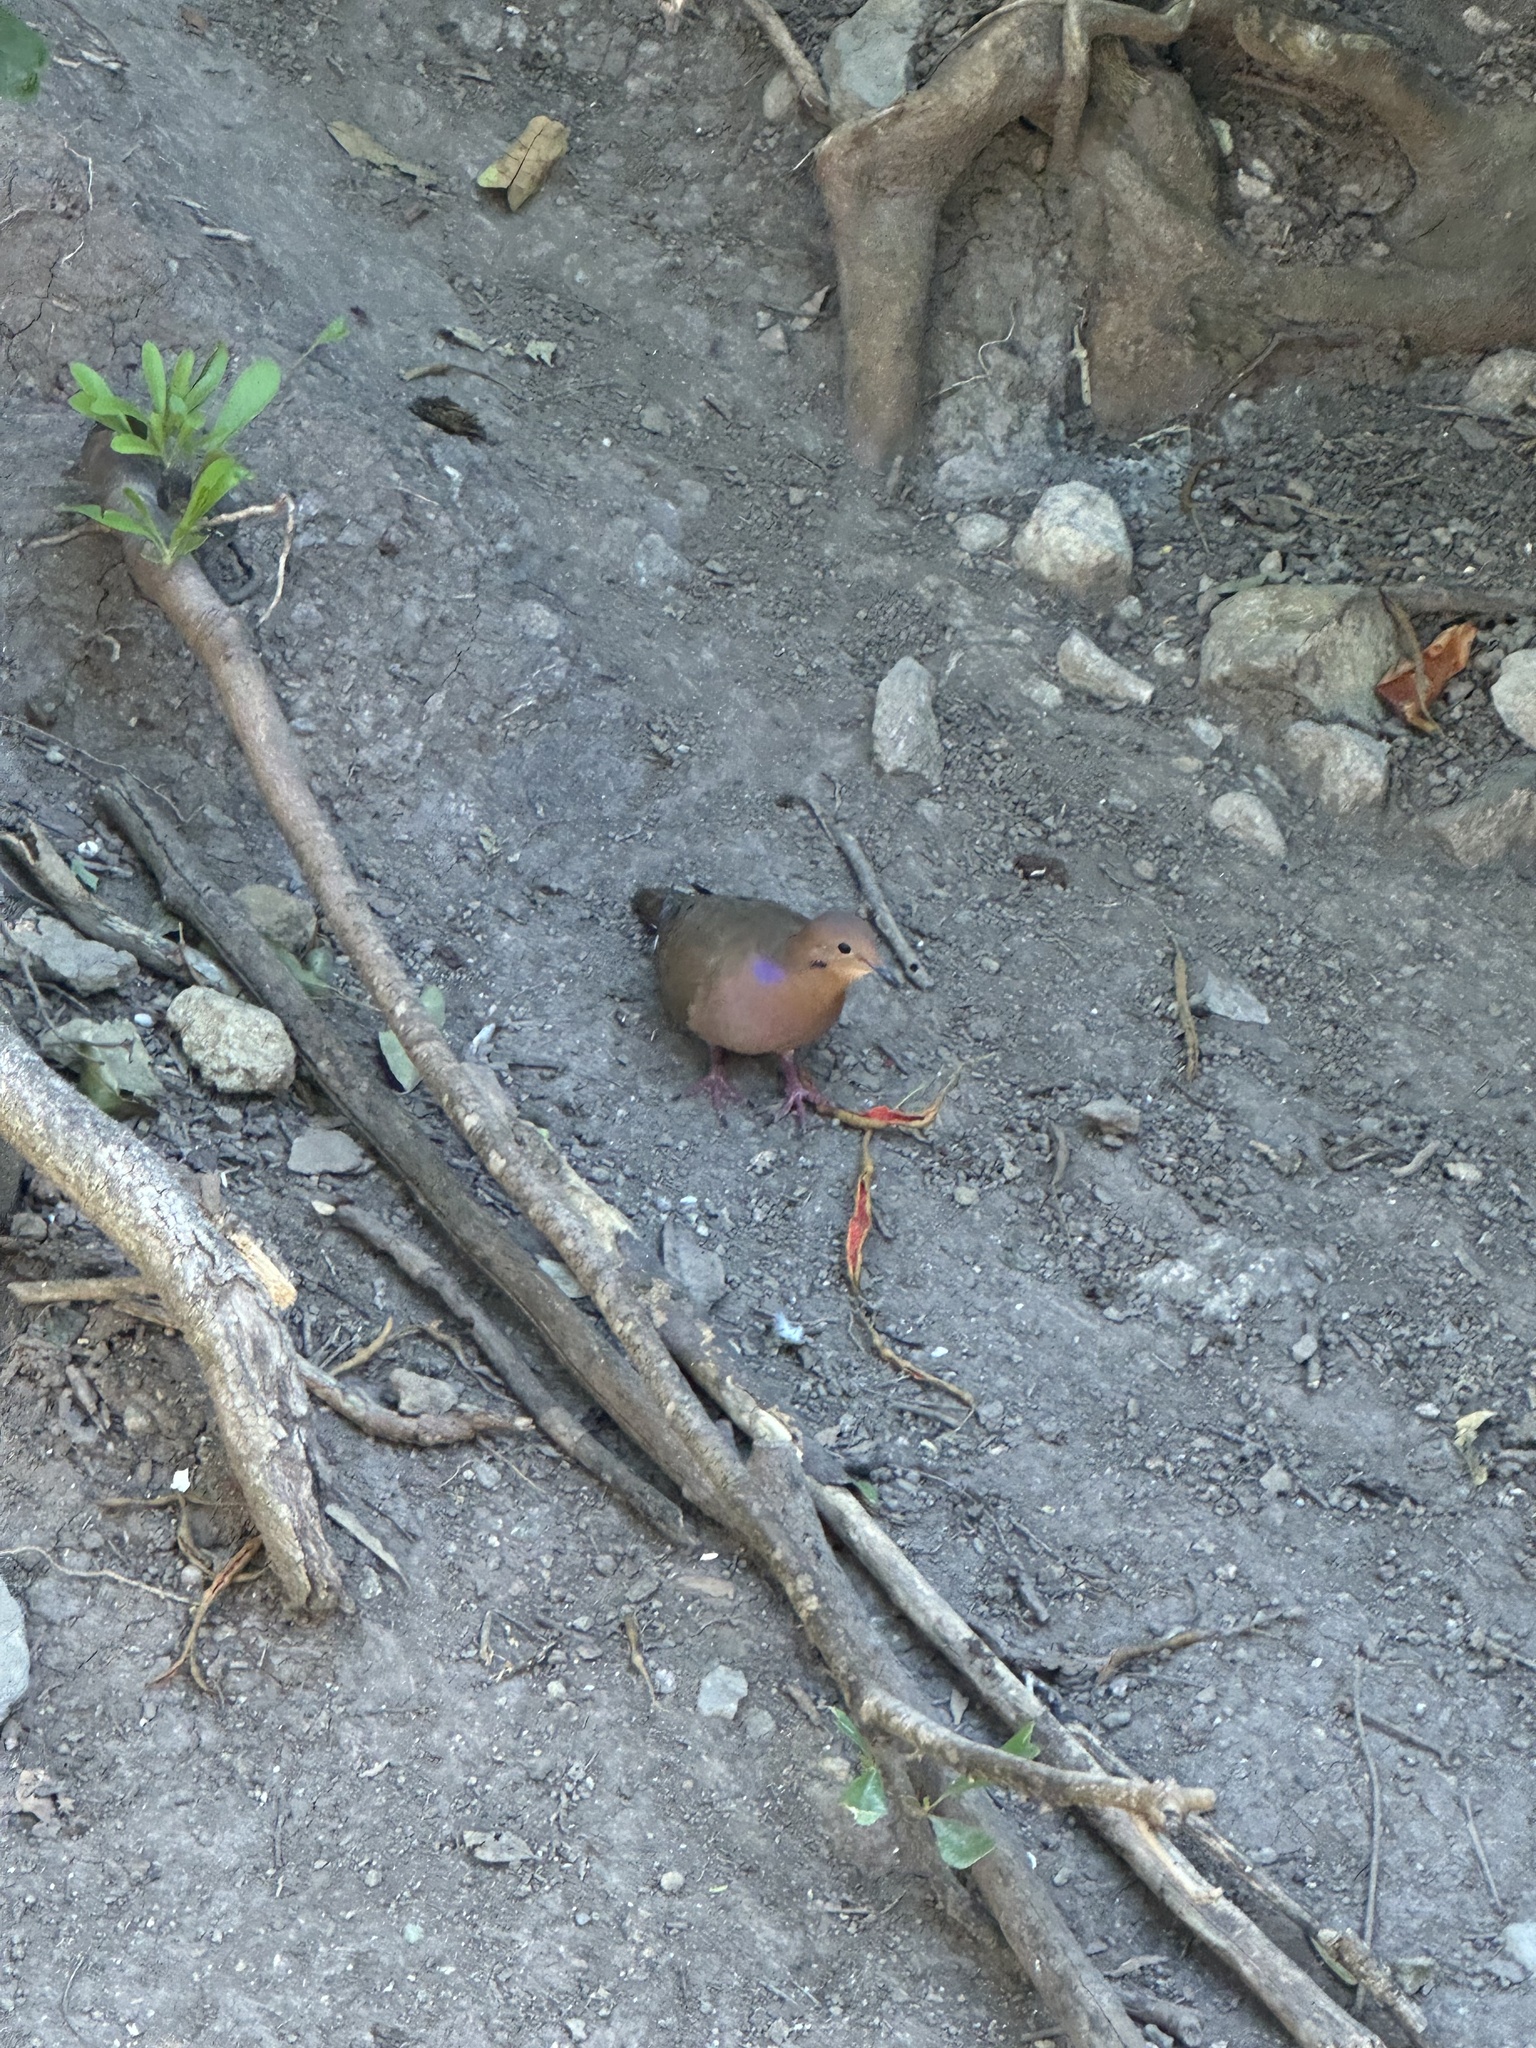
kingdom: Animalia
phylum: Chordata
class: Aves
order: Columbiformes
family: Columbidae
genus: Zenaida
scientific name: Zenaida aurita
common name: Zenaida dove
